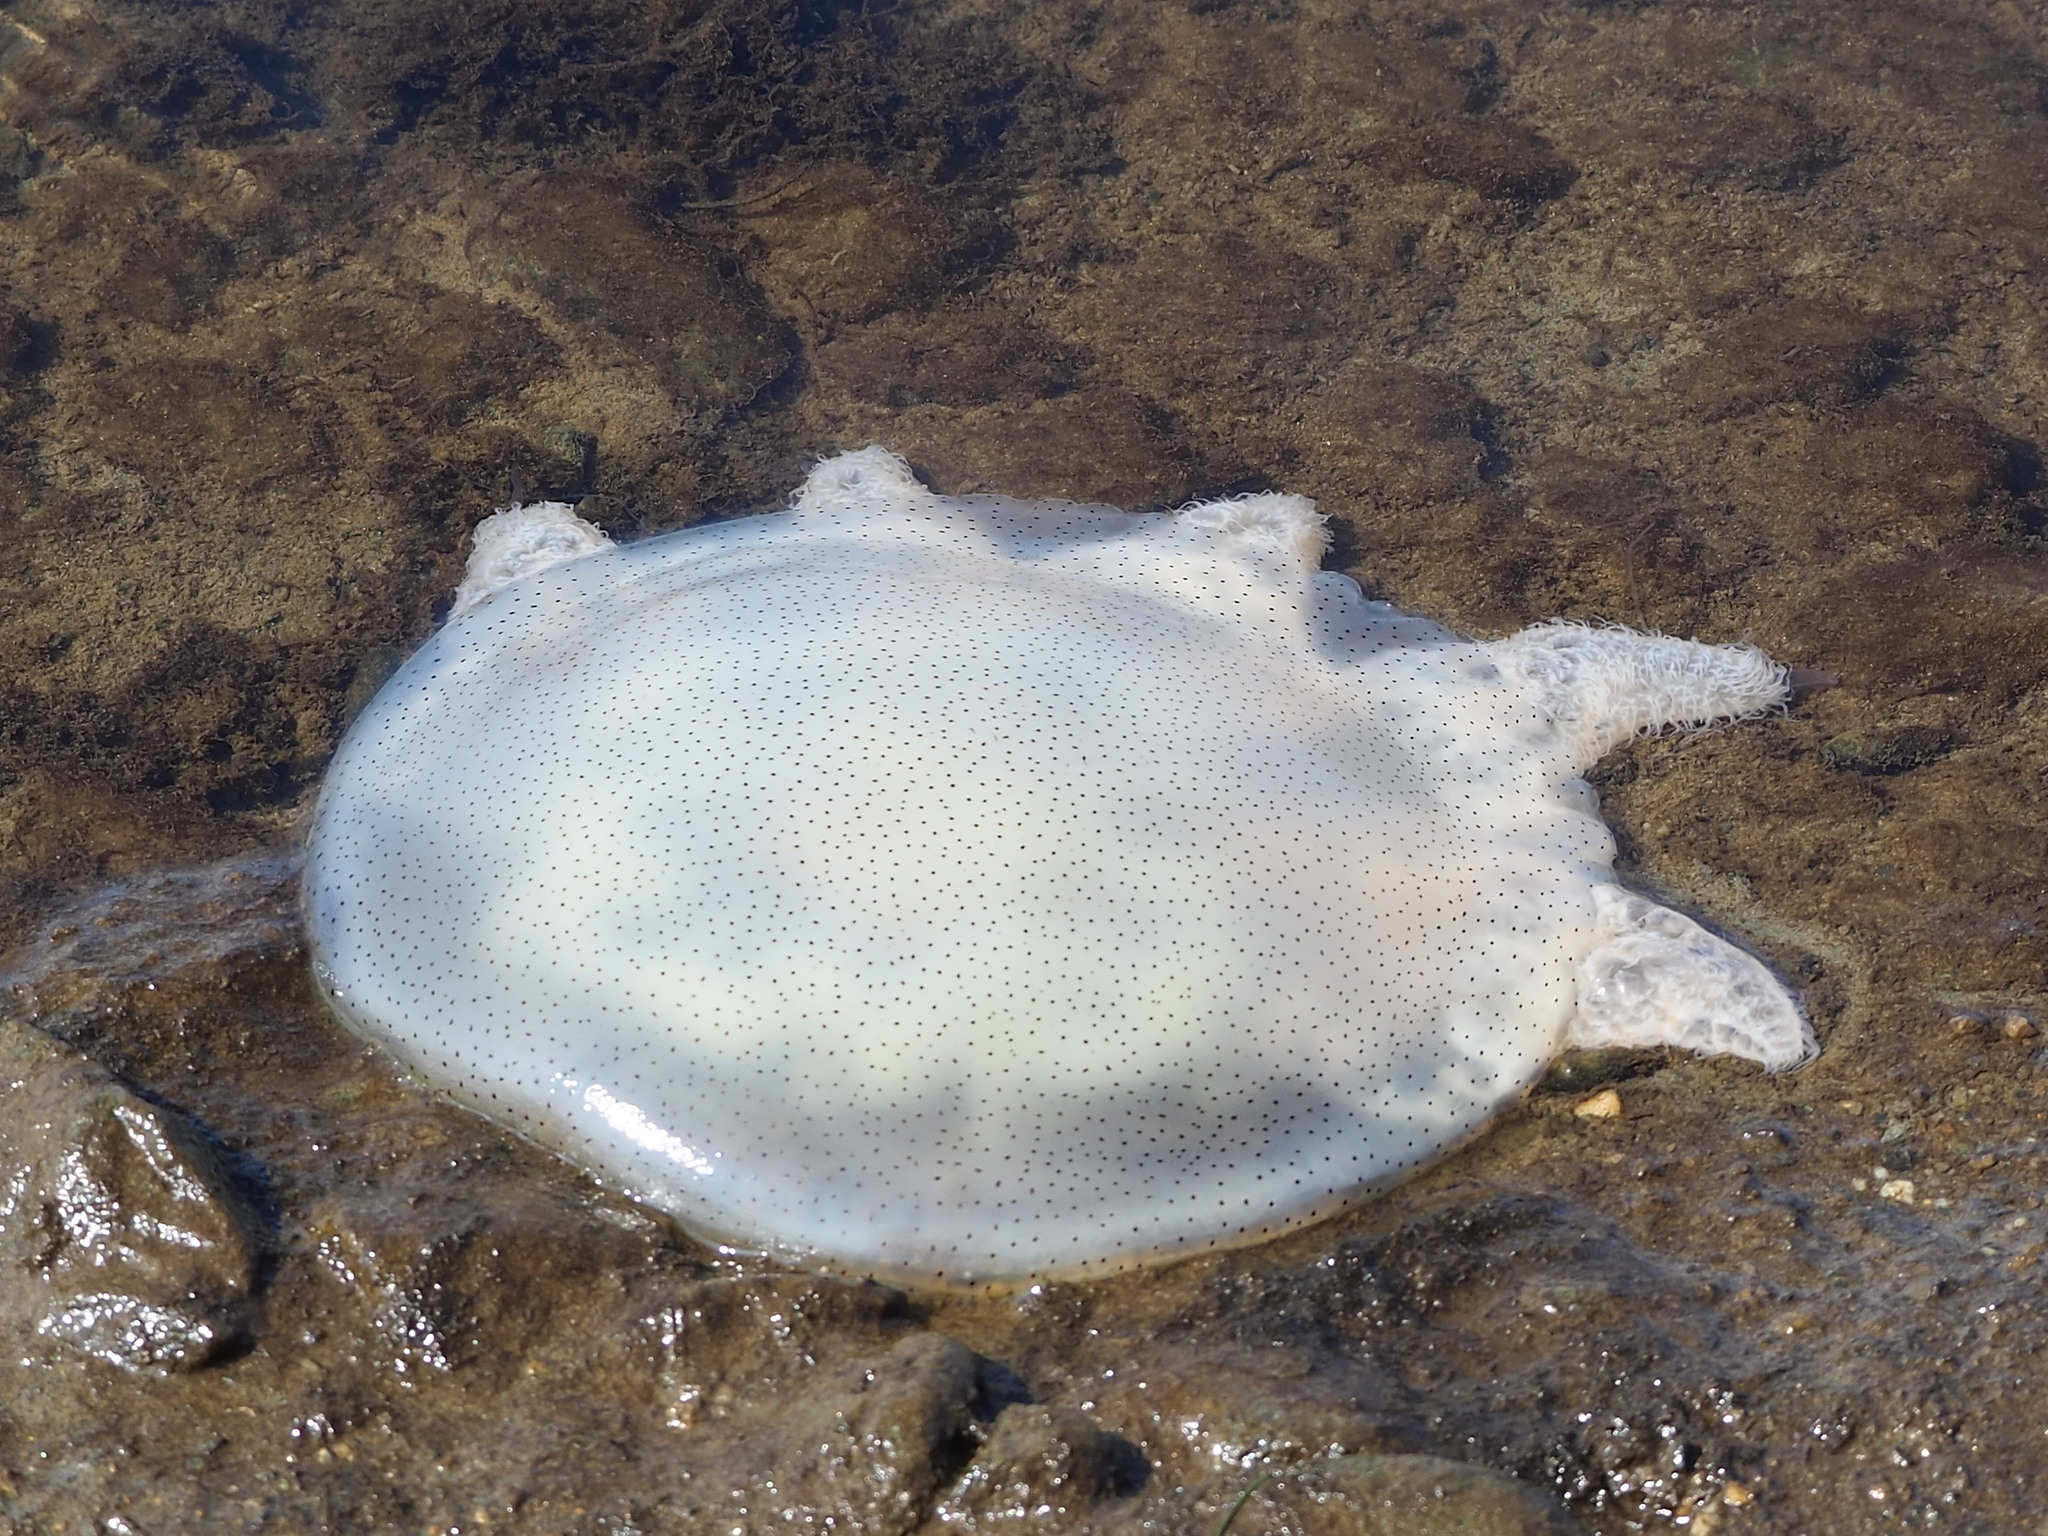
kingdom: Animalia
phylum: Cnidaria
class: Scyphozoa
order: Rhizostomeae
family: Catostylidae
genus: Acromitus
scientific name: Acromitus flagellatus
